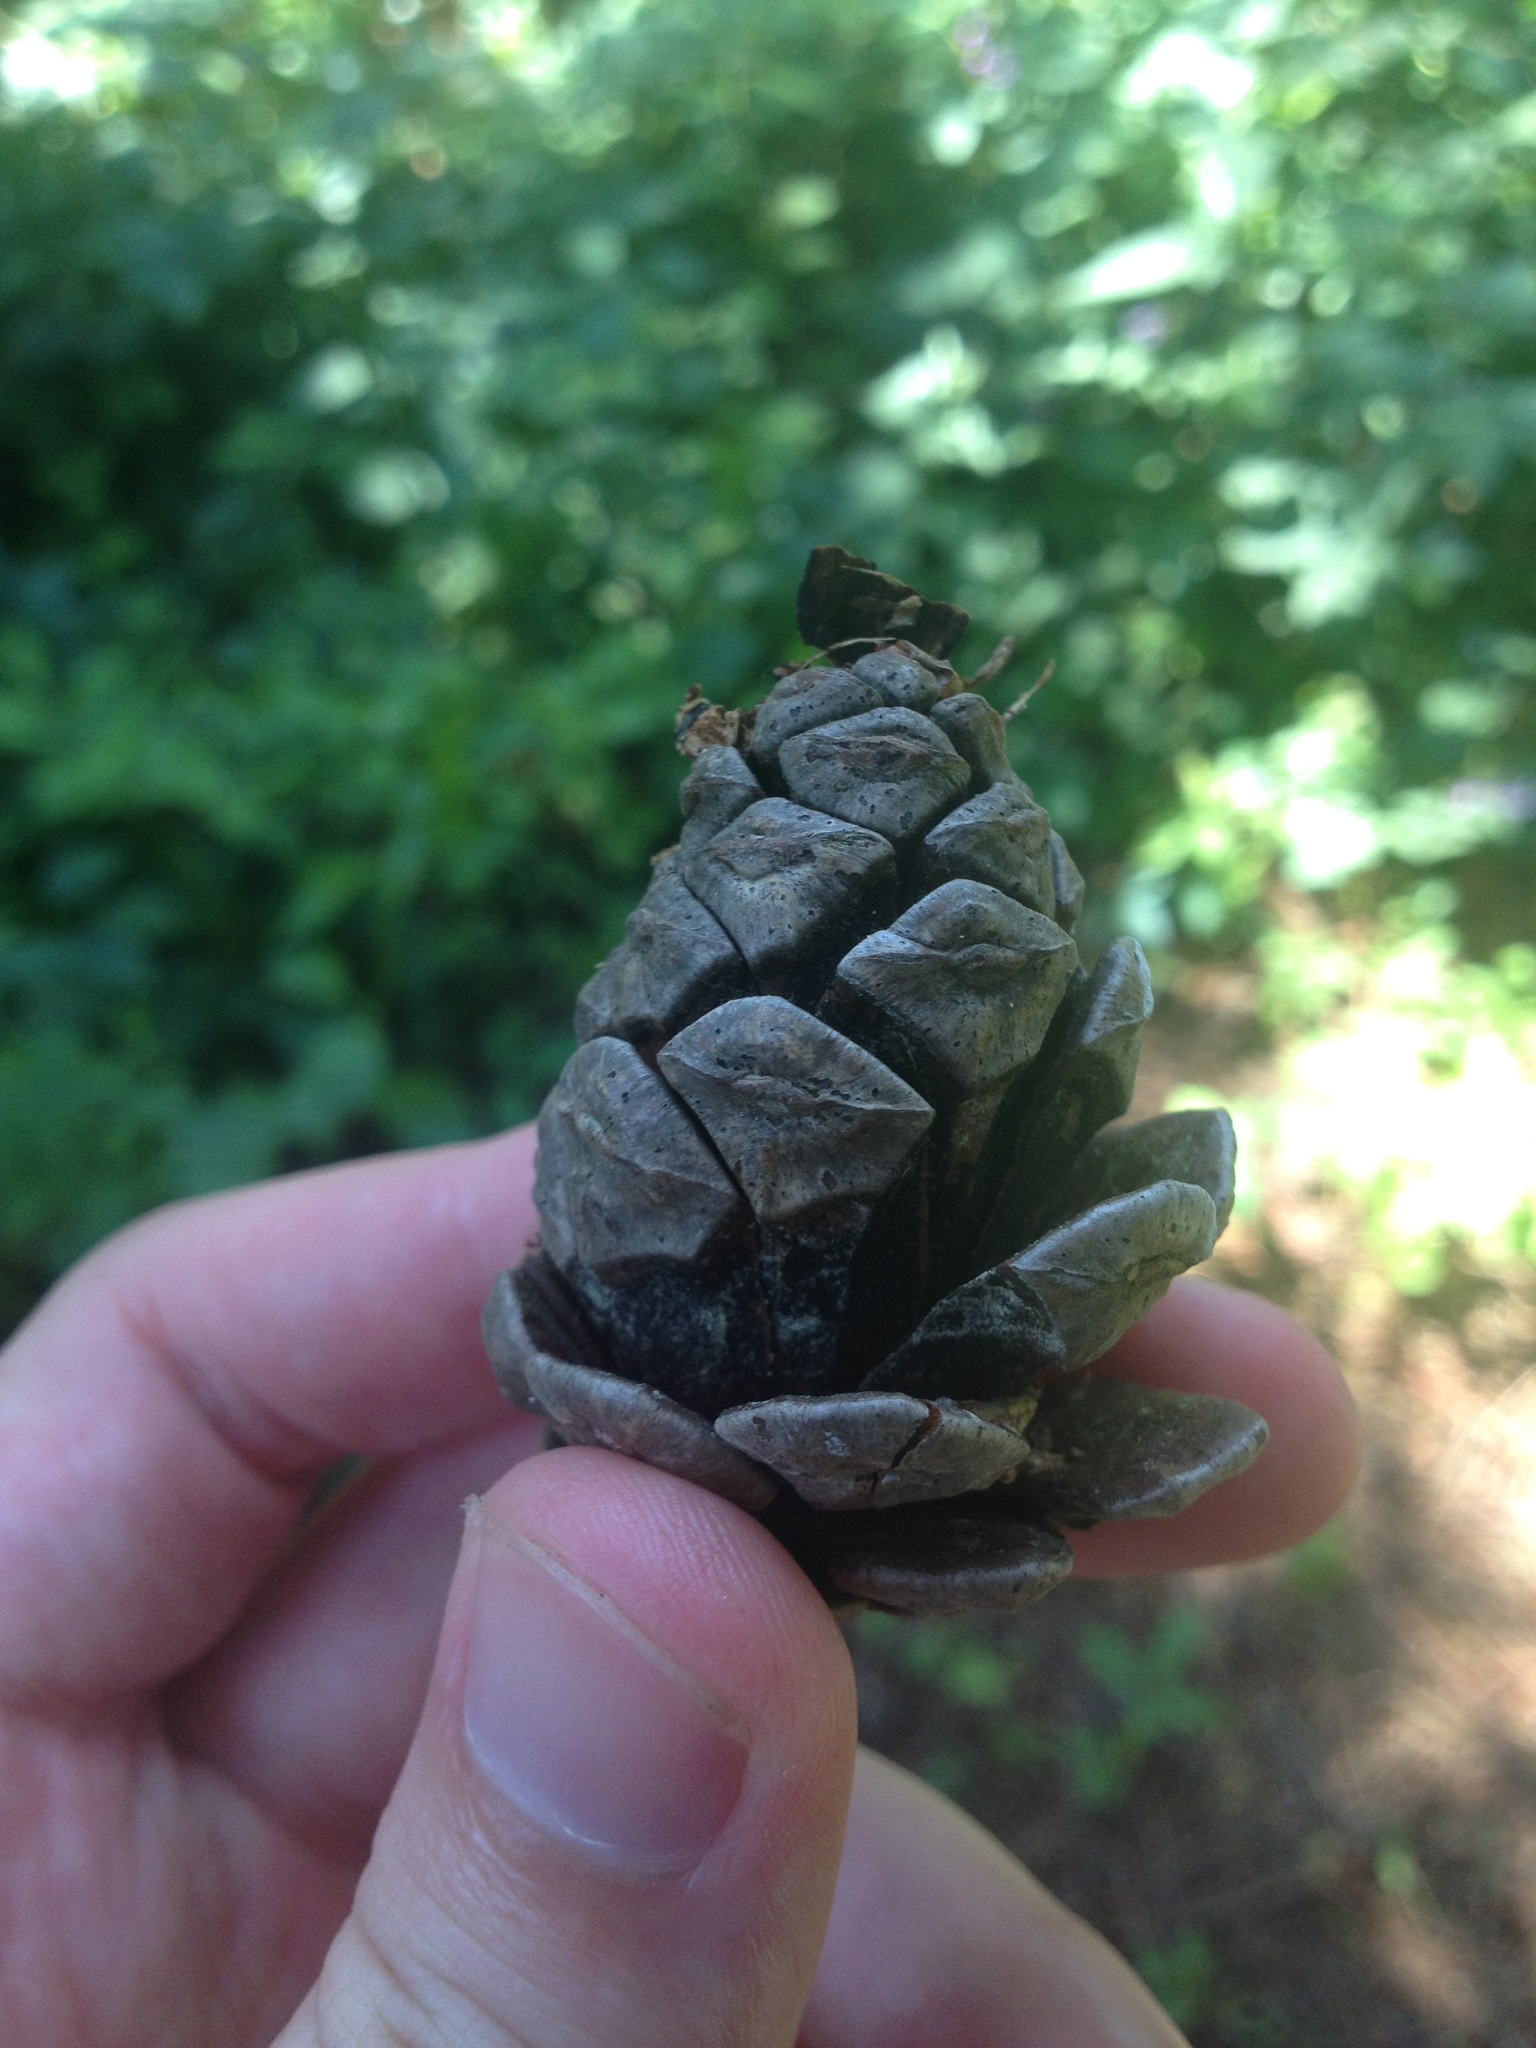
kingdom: Plantae
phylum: Tracheophyta
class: Pinopsida
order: Pinales
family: Pinaceae
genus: Pinus
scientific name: Pinus rigida
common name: Pitch pine
